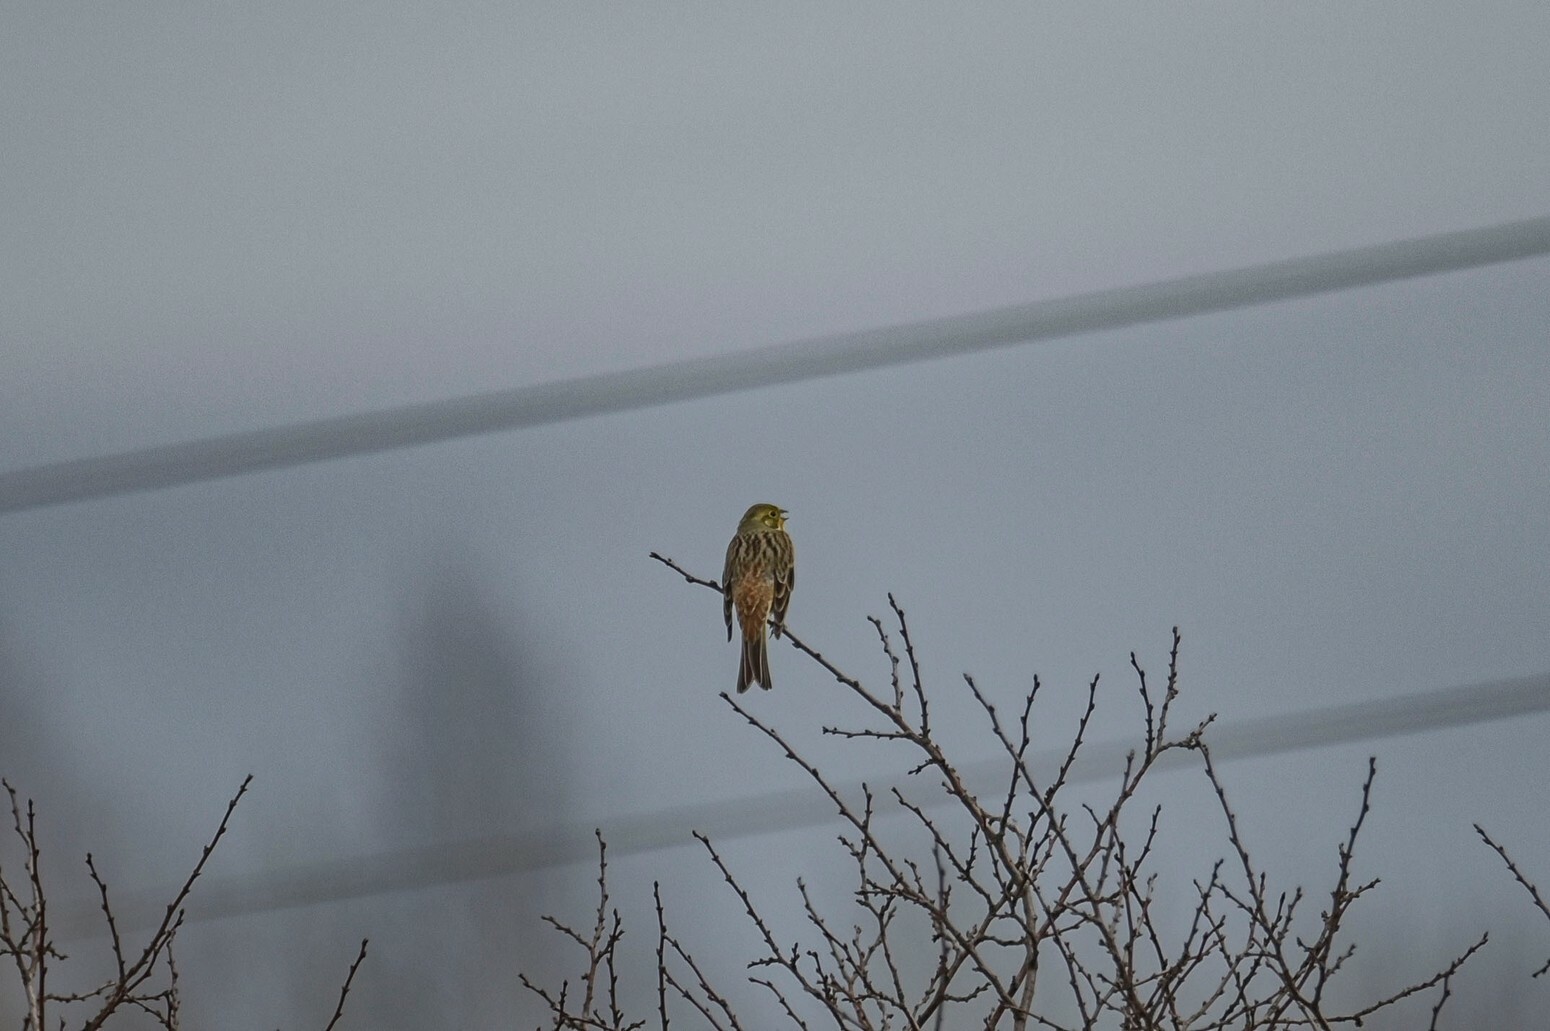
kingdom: Animalia
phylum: Chordata
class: Aves
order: Passeriformes
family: Emberizidae
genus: Emberiza
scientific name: Emberiza citrinella
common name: Yellowhammer
